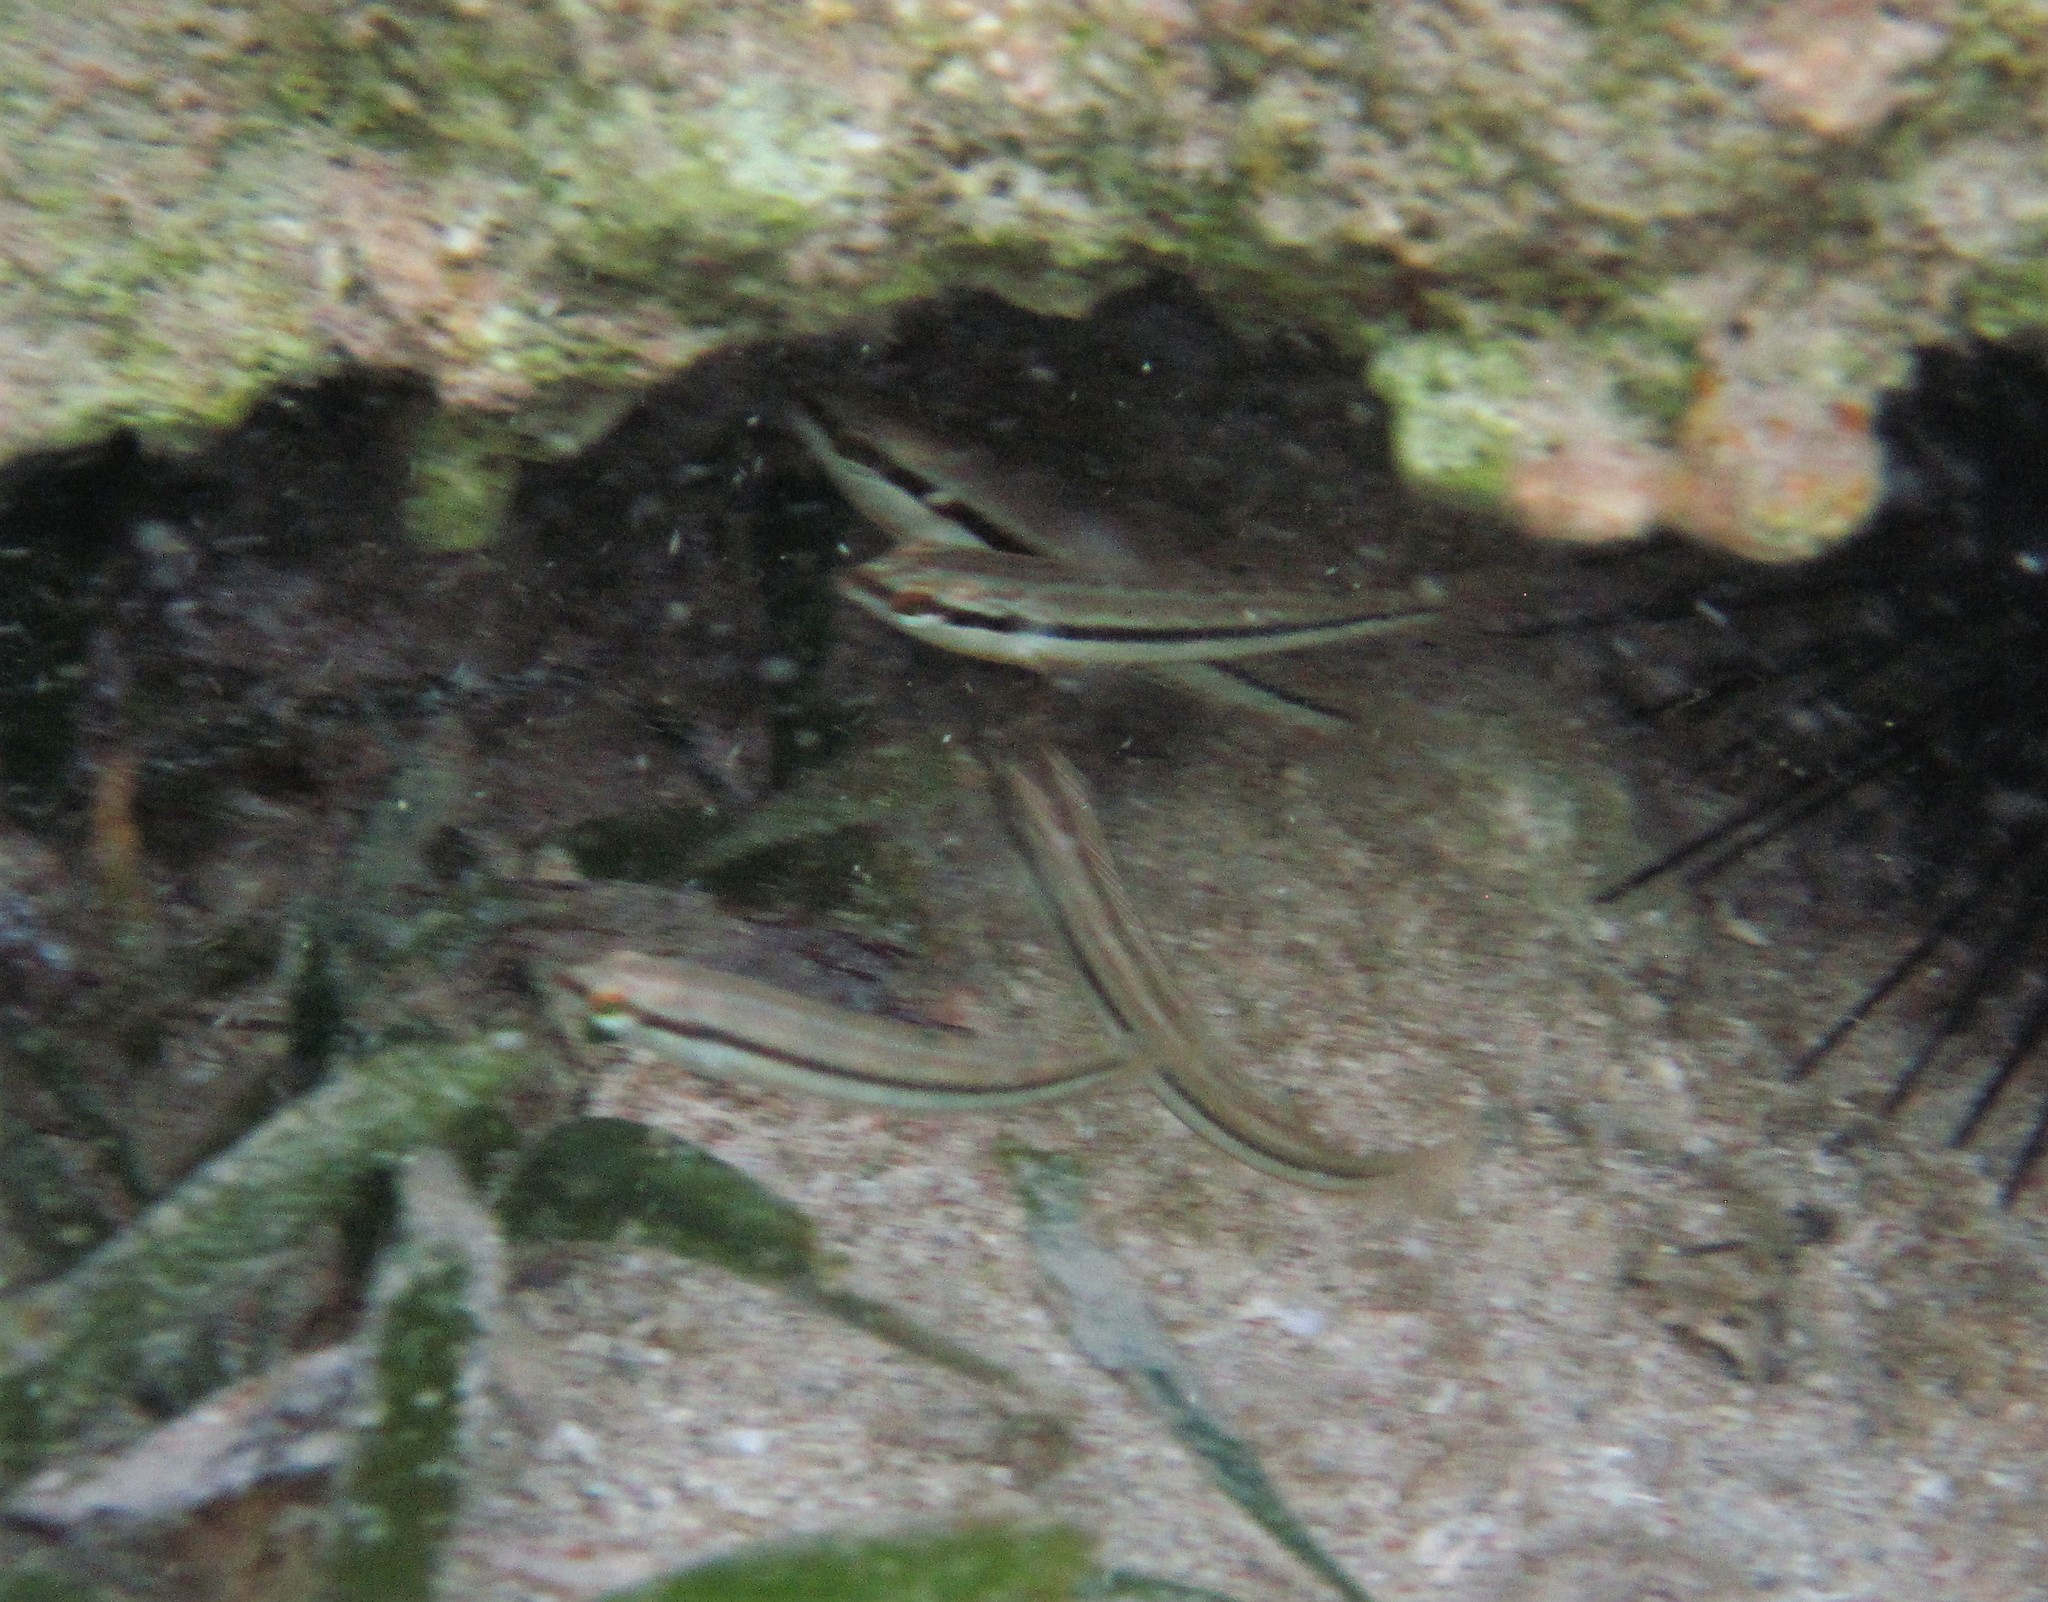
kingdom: Animalia
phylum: Chordata
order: Perciformes
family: Labridae
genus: Halichoeres
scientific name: Halichoeres bivittatus
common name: Slippery dick
